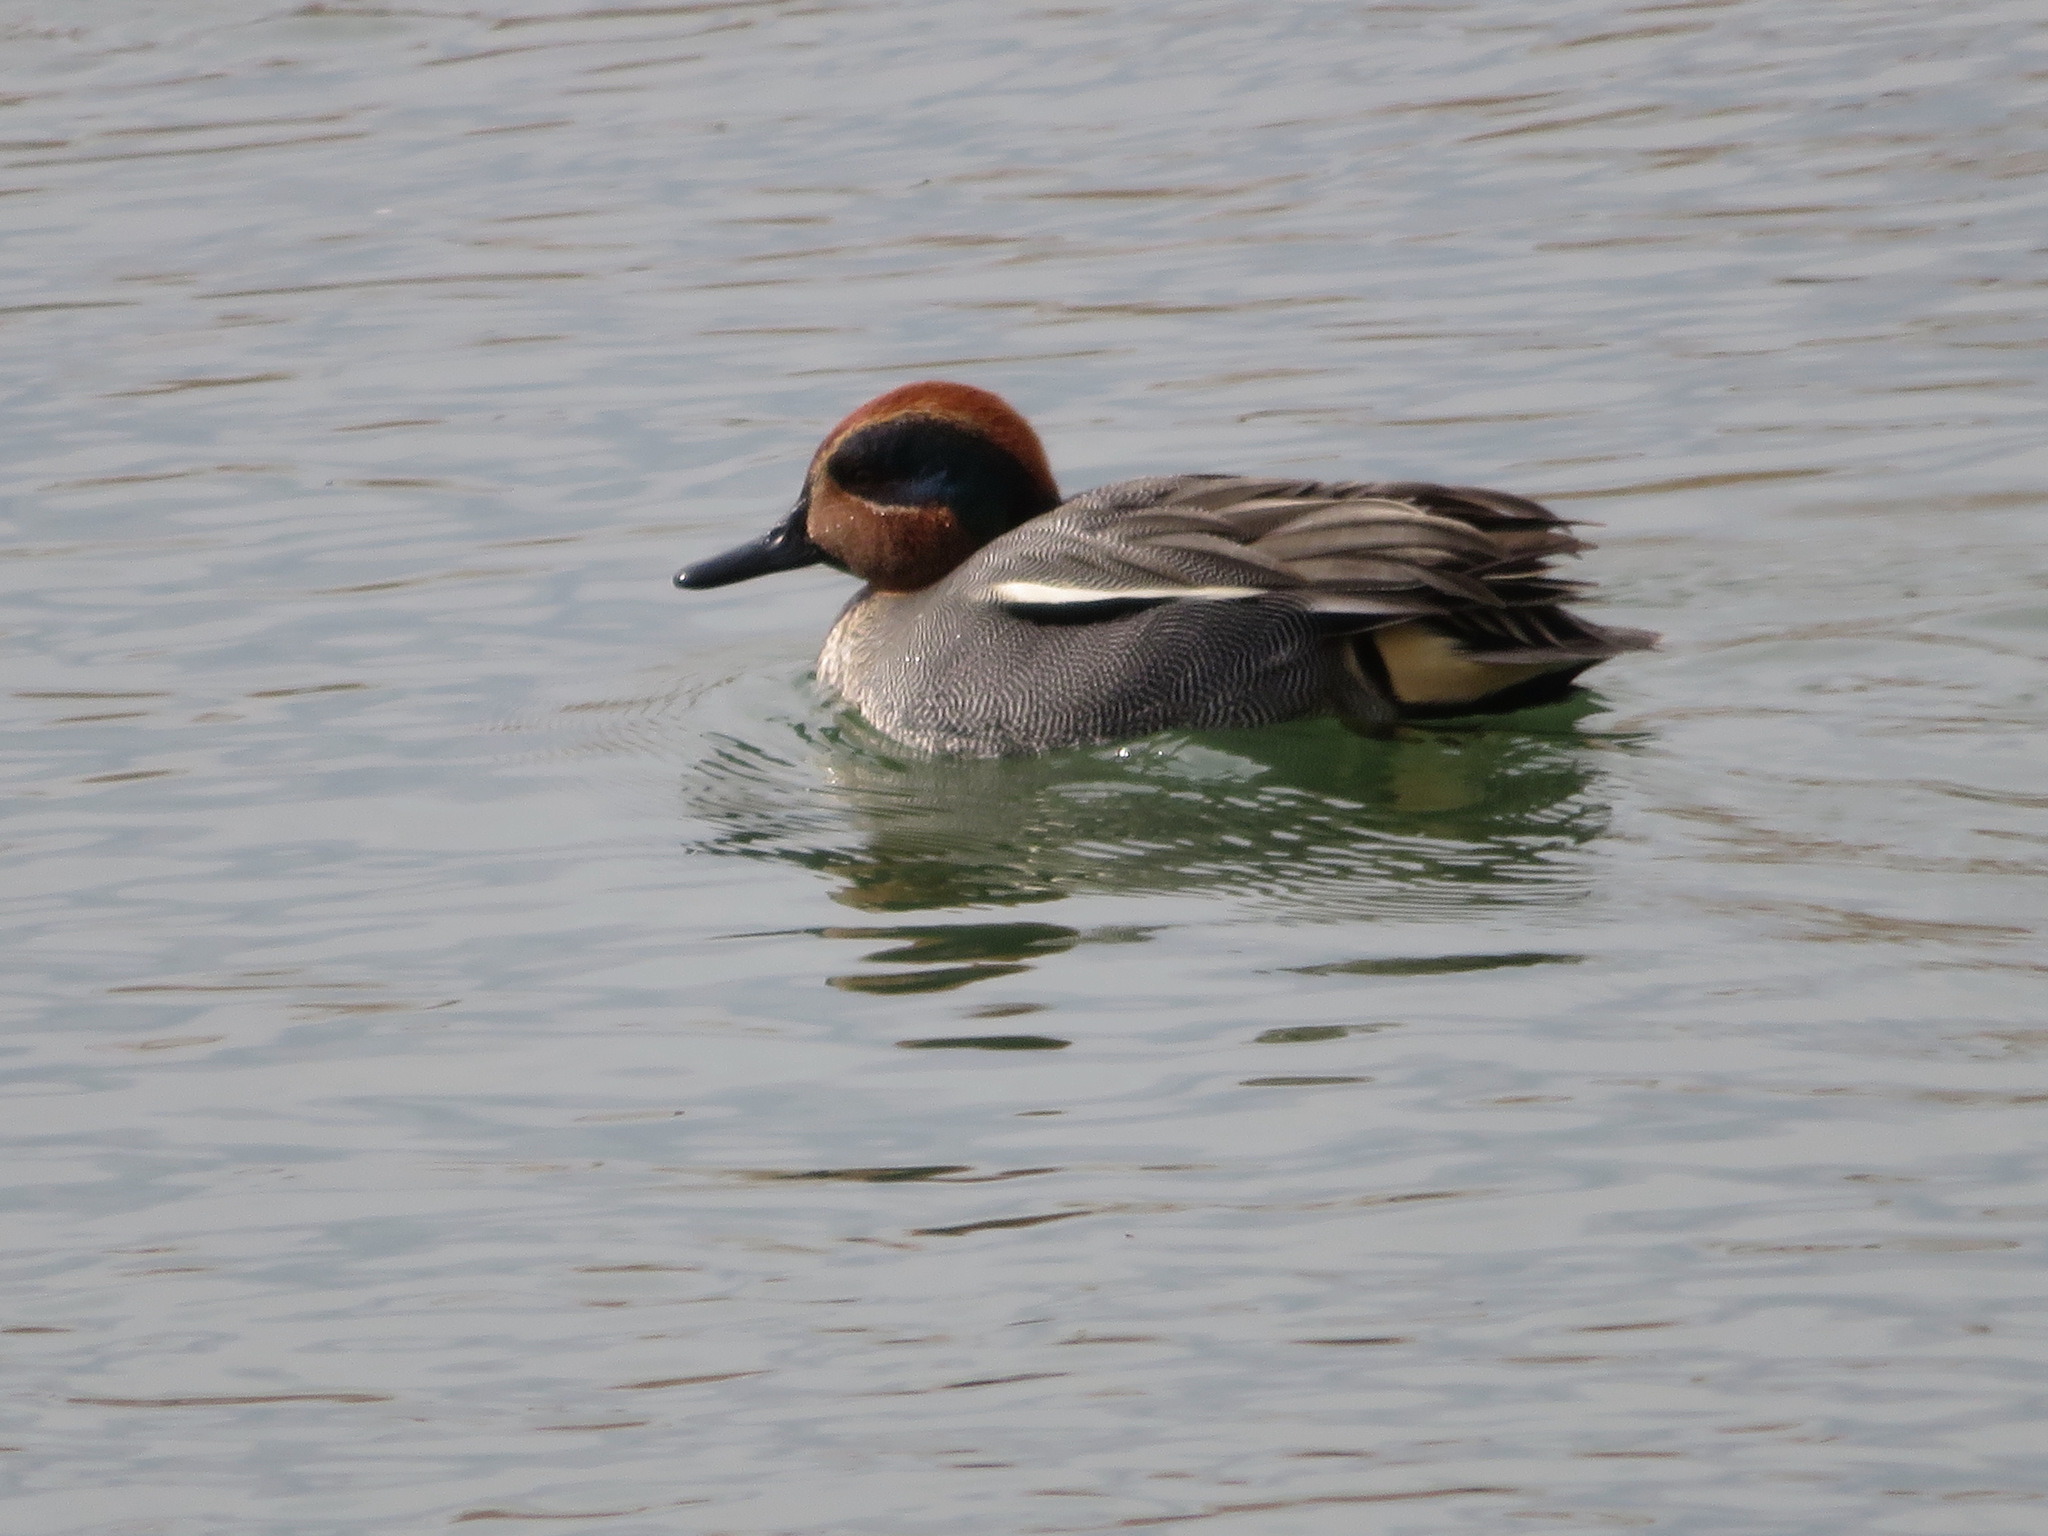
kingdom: Animalia
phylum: Chordata
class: Aves
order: Anseriformes
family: Anatidae
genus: Anas
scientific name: Anas crecca
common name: Eurasian teal
